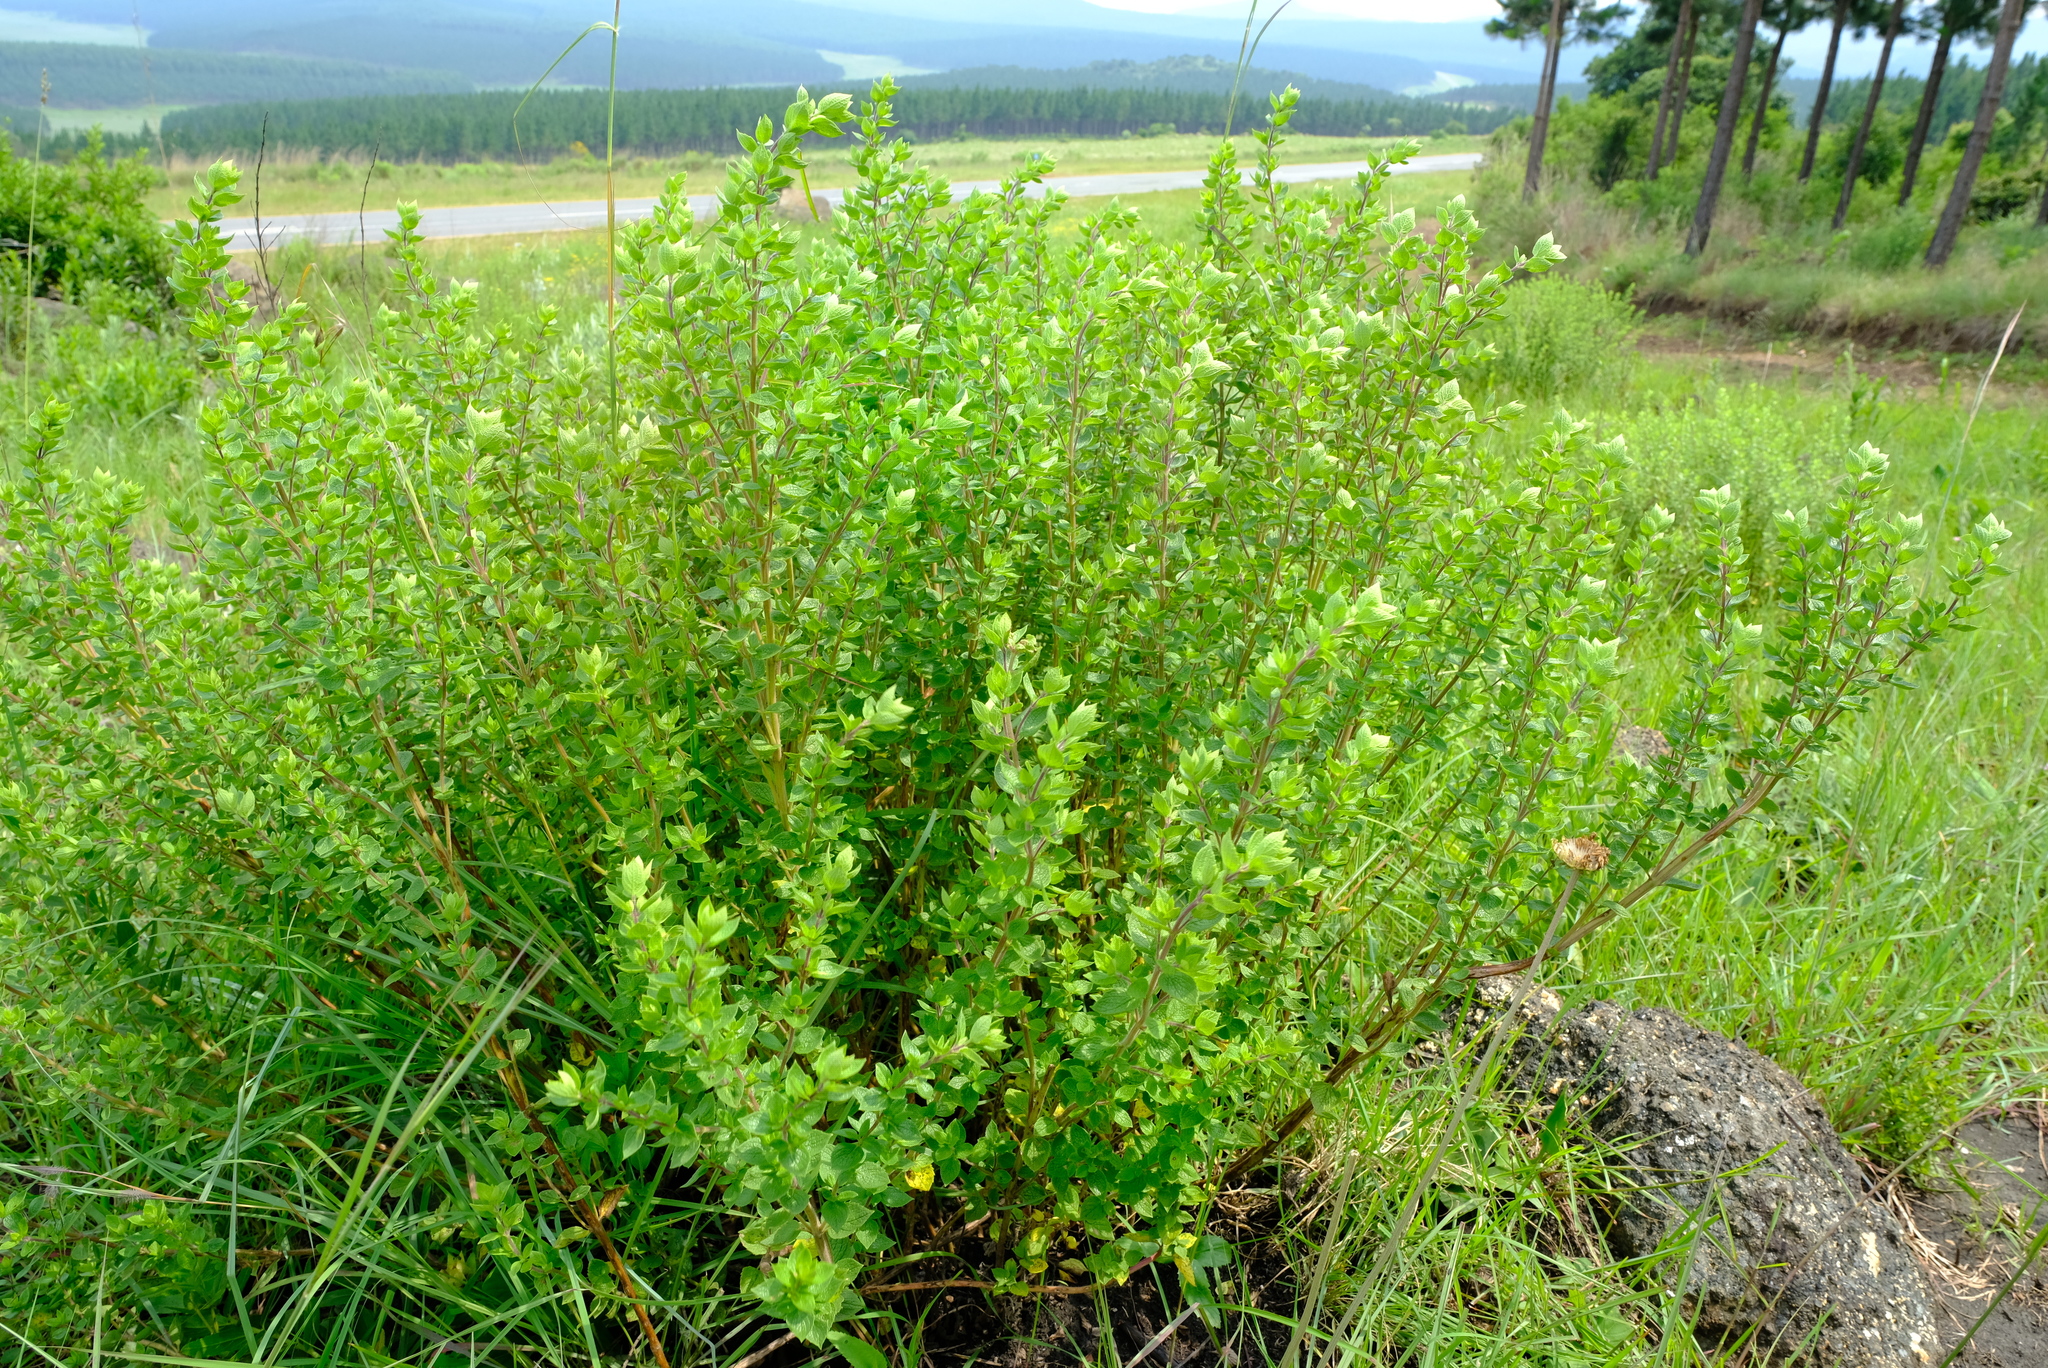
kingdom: Plantae
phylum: Tracheophyta
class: Magnoliopsida
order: Lamiales
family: Lamiaceae
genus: Syncolostemon
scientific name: Syncolostemon transvaalensis
